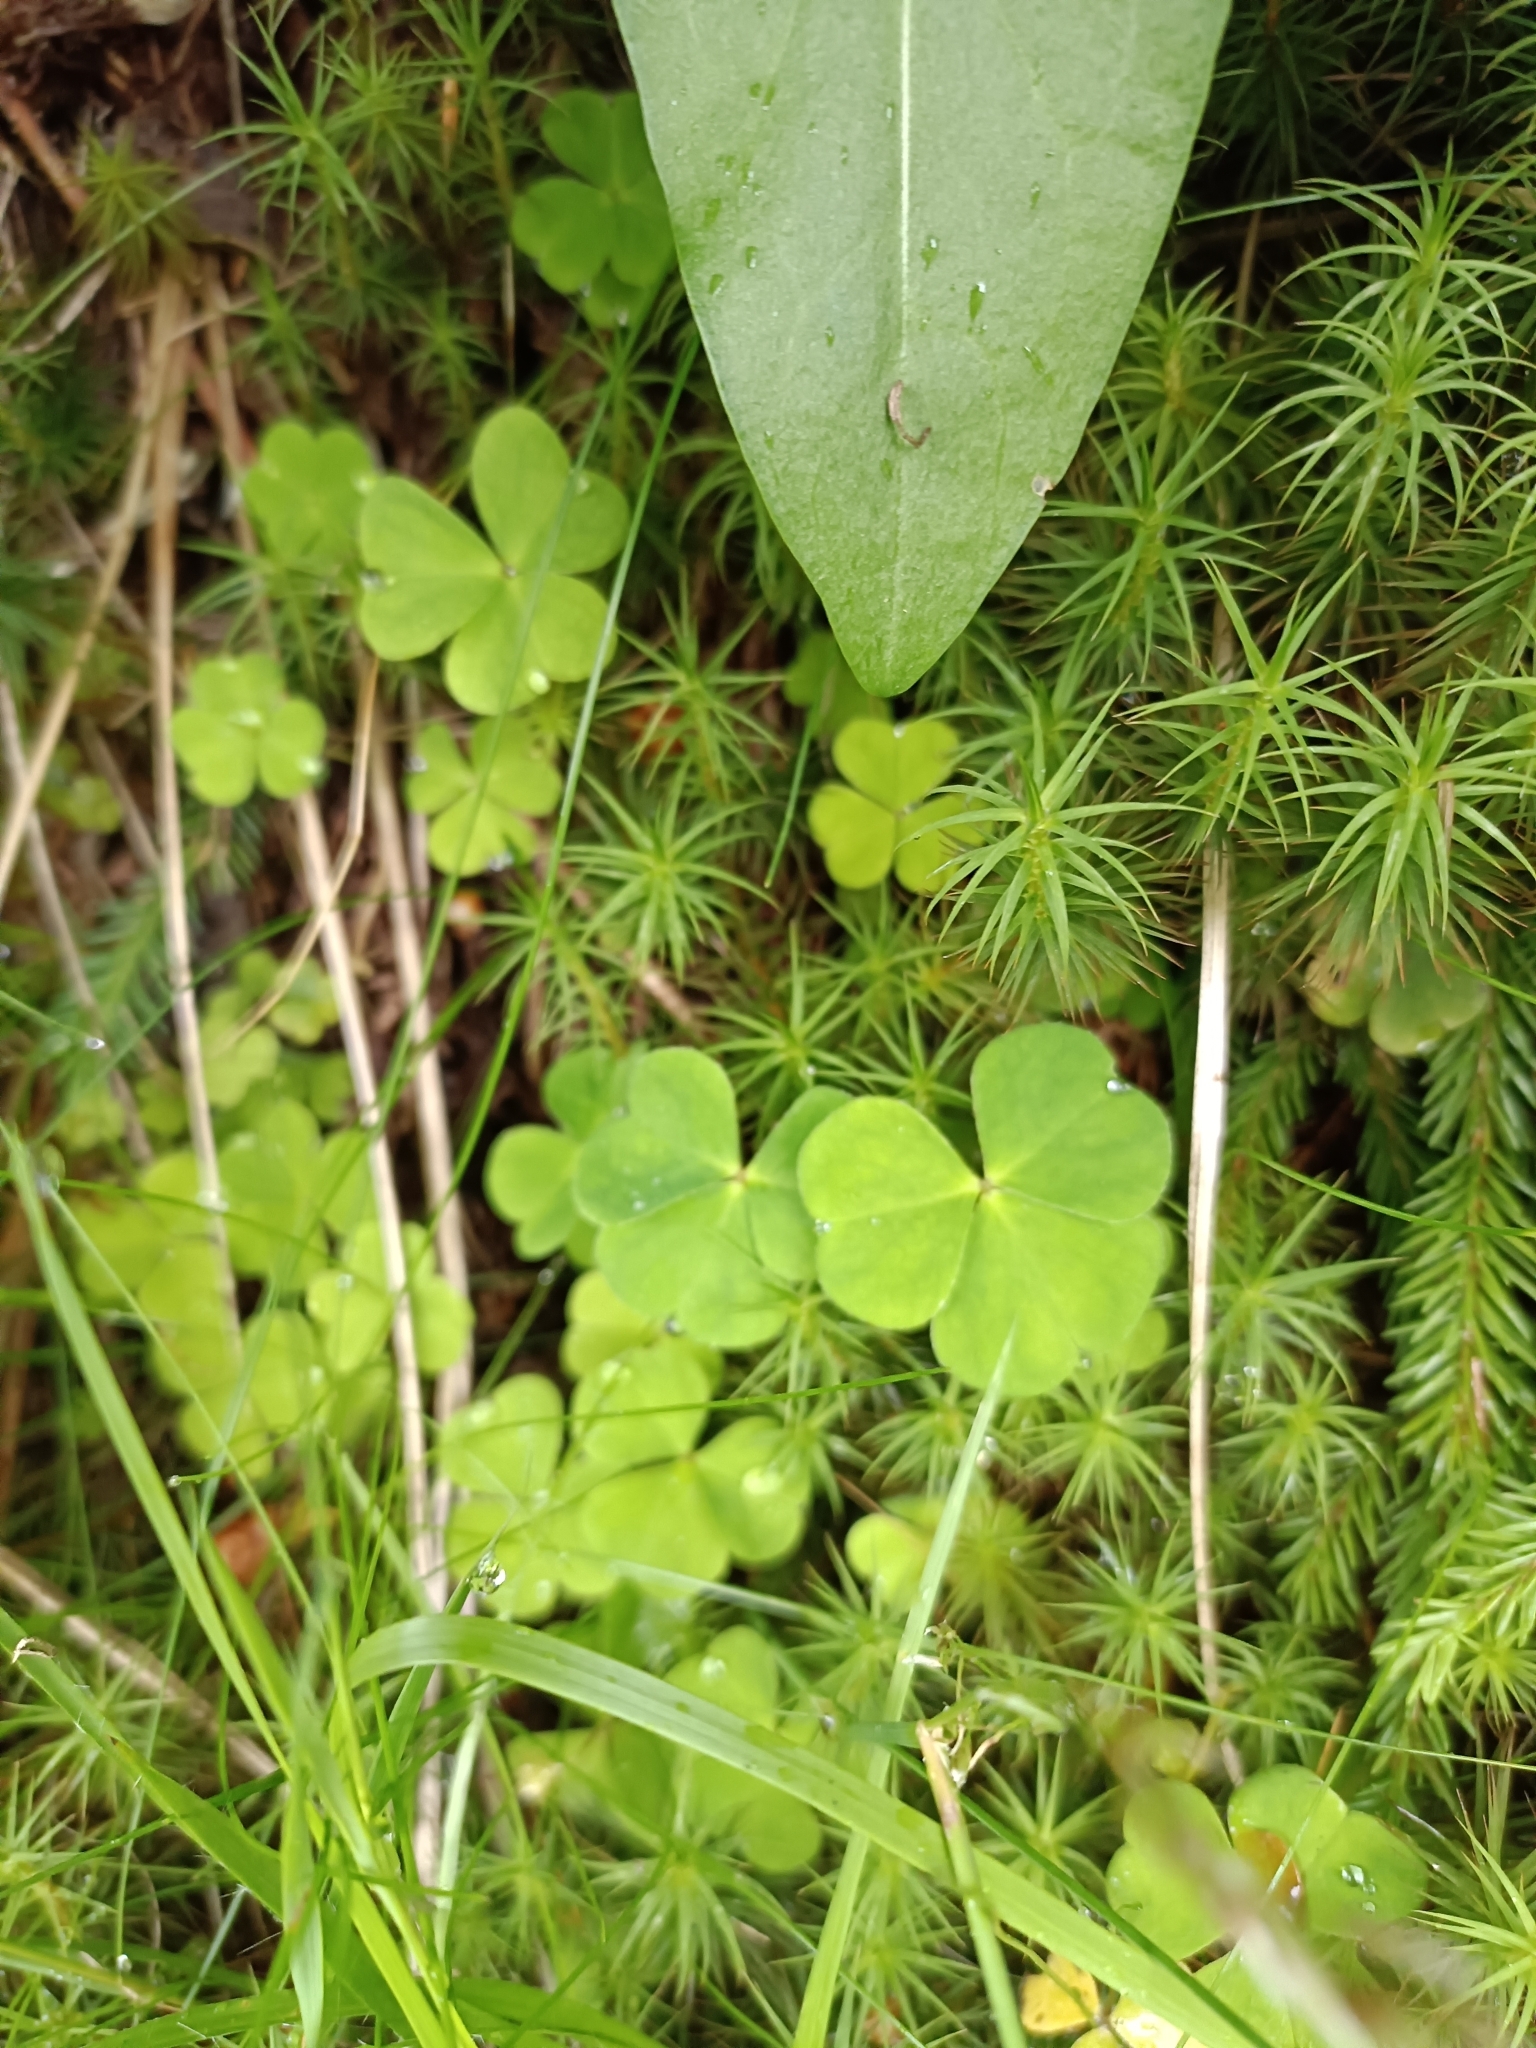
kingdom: Plantae
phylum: Tracheophyta
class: Magnoliopsida
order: Oxalidales
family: Oxalidaceae
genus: Oxalis
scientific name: Oxalis acetosella
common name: Wood-sorrel
